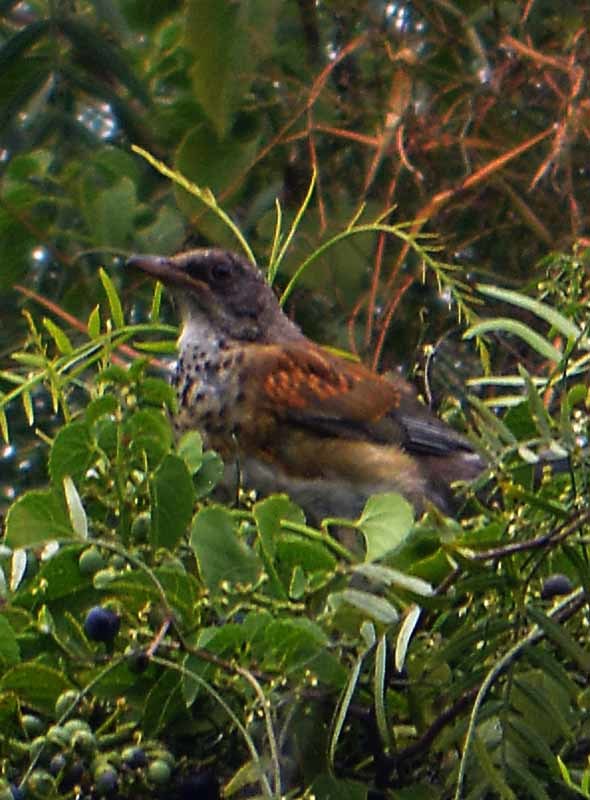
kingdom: Animalia
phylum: Chordata
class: Aves
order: Passeriformes
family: Turdidae
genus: Turdus
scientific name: Turdus rufopalliatus
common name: Rufous-backed robin
